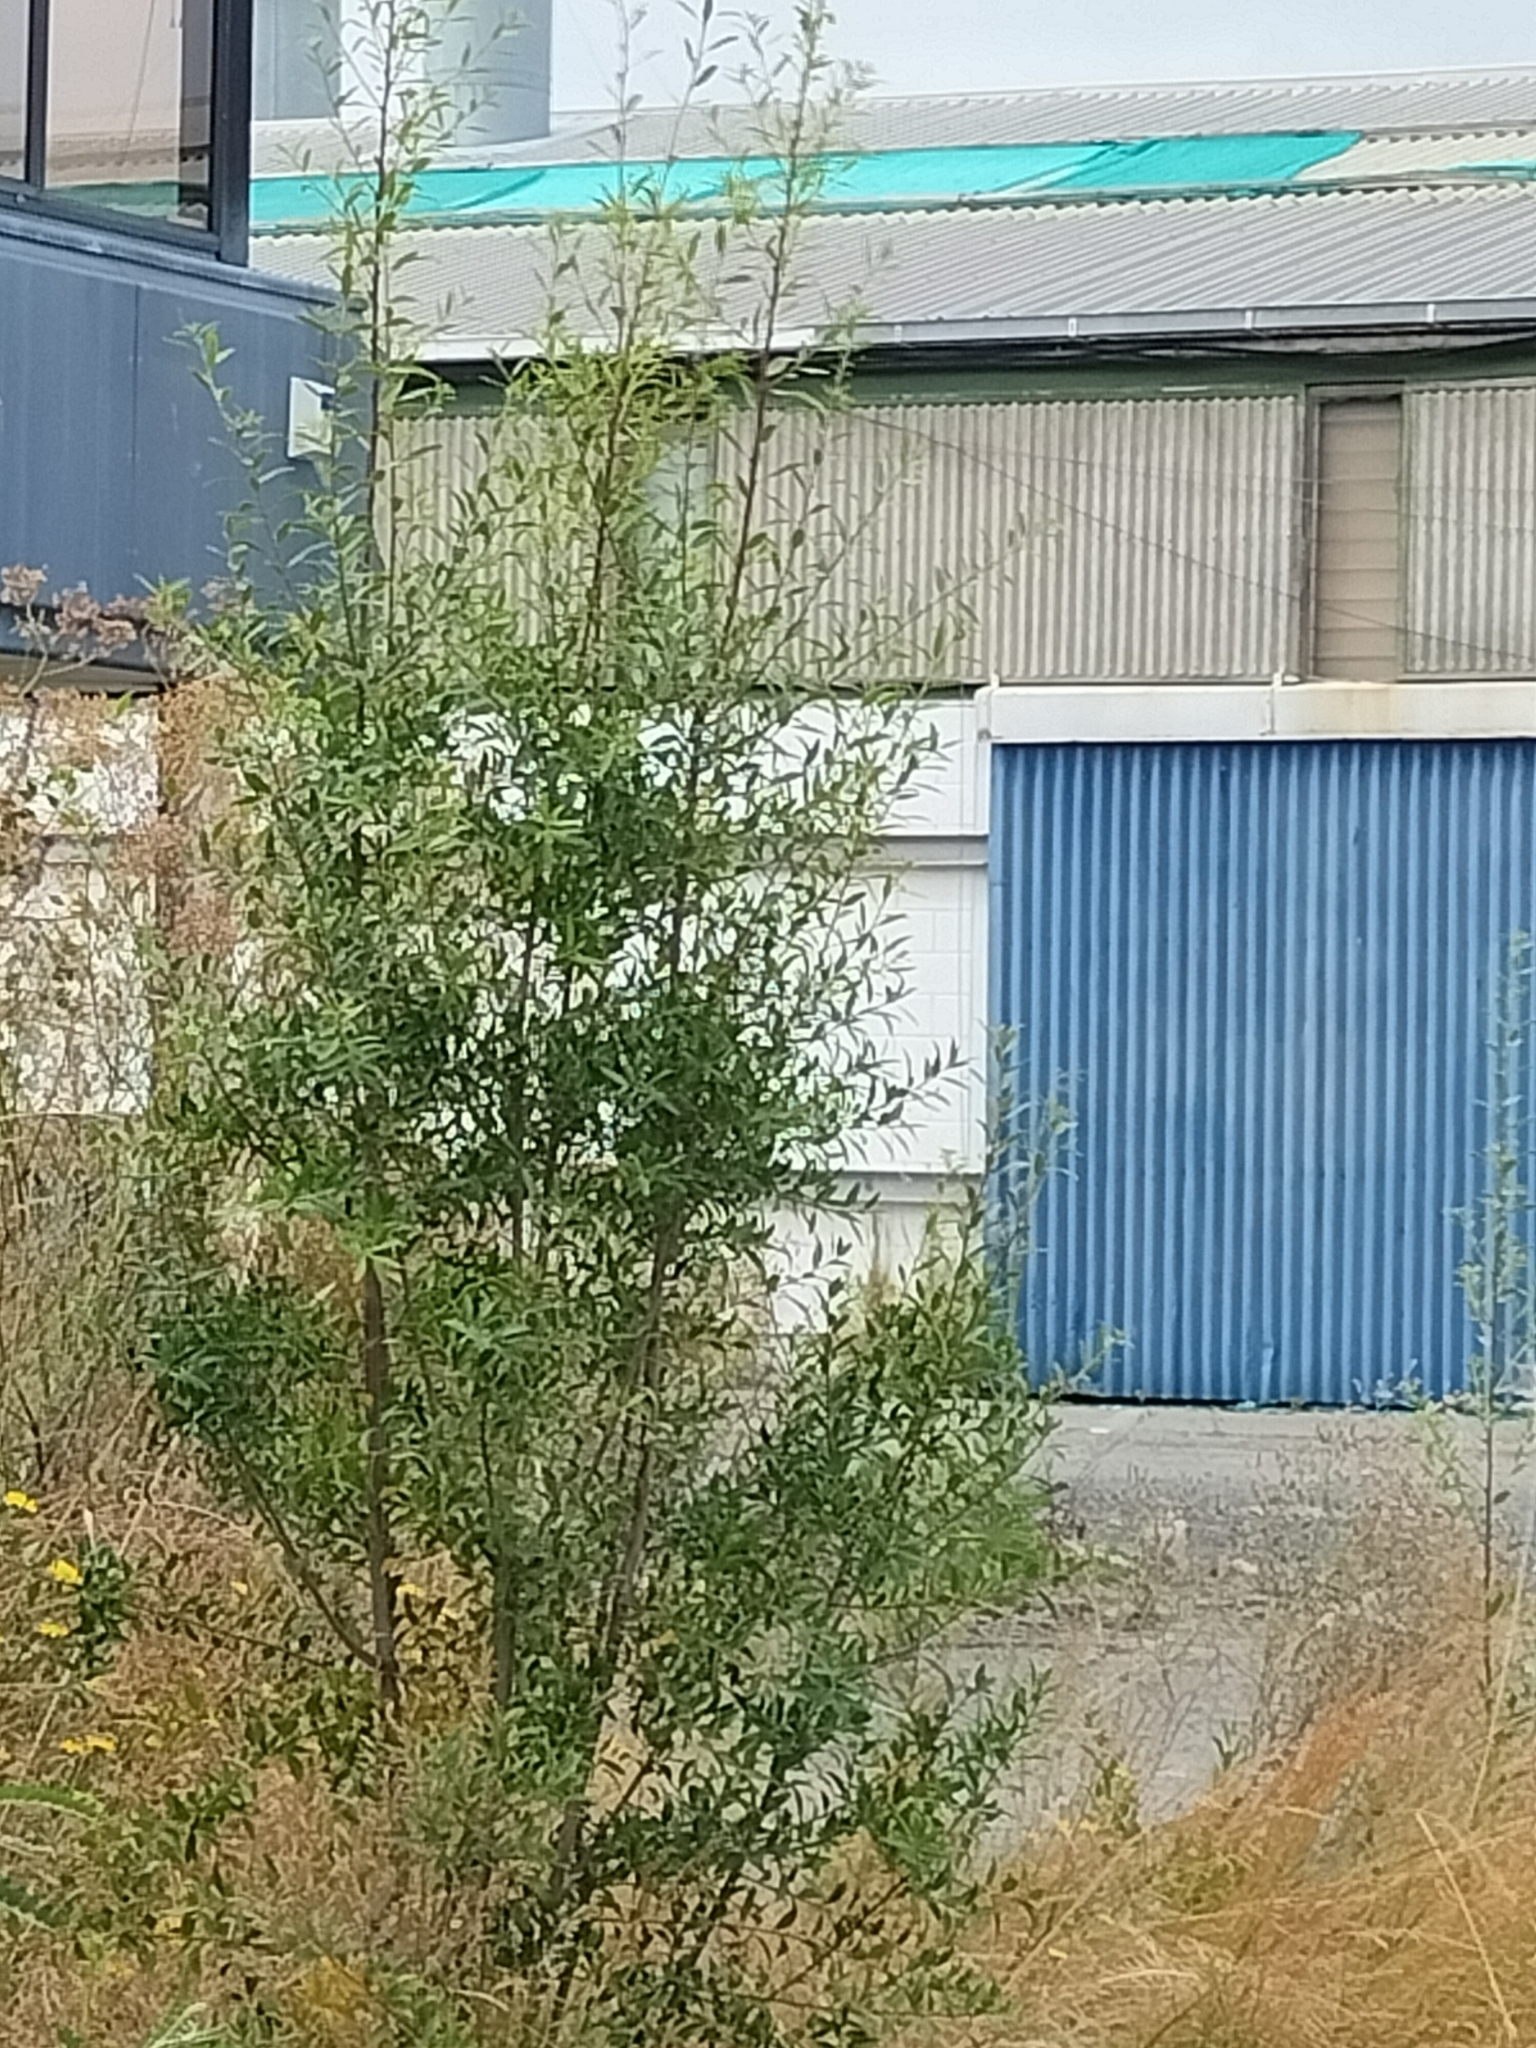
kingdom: Plantae
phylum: Tracheophyta
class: Magnoliopsida
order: Celastrales
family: Celastraceae
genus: Maytenus
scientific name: Maytenus boaria
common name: Mayten
